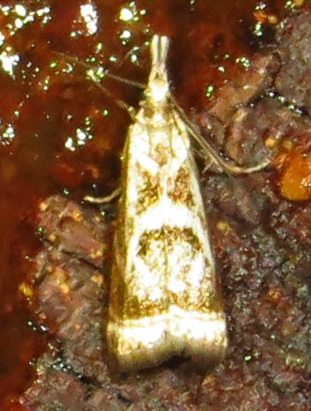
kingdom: Animalia
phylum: Arthropoda
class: Insecta
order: Lepidoptera
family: Crambidae
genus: Microcrambus
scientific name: Microcrambus elegans
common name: Elegant grass-veneer
